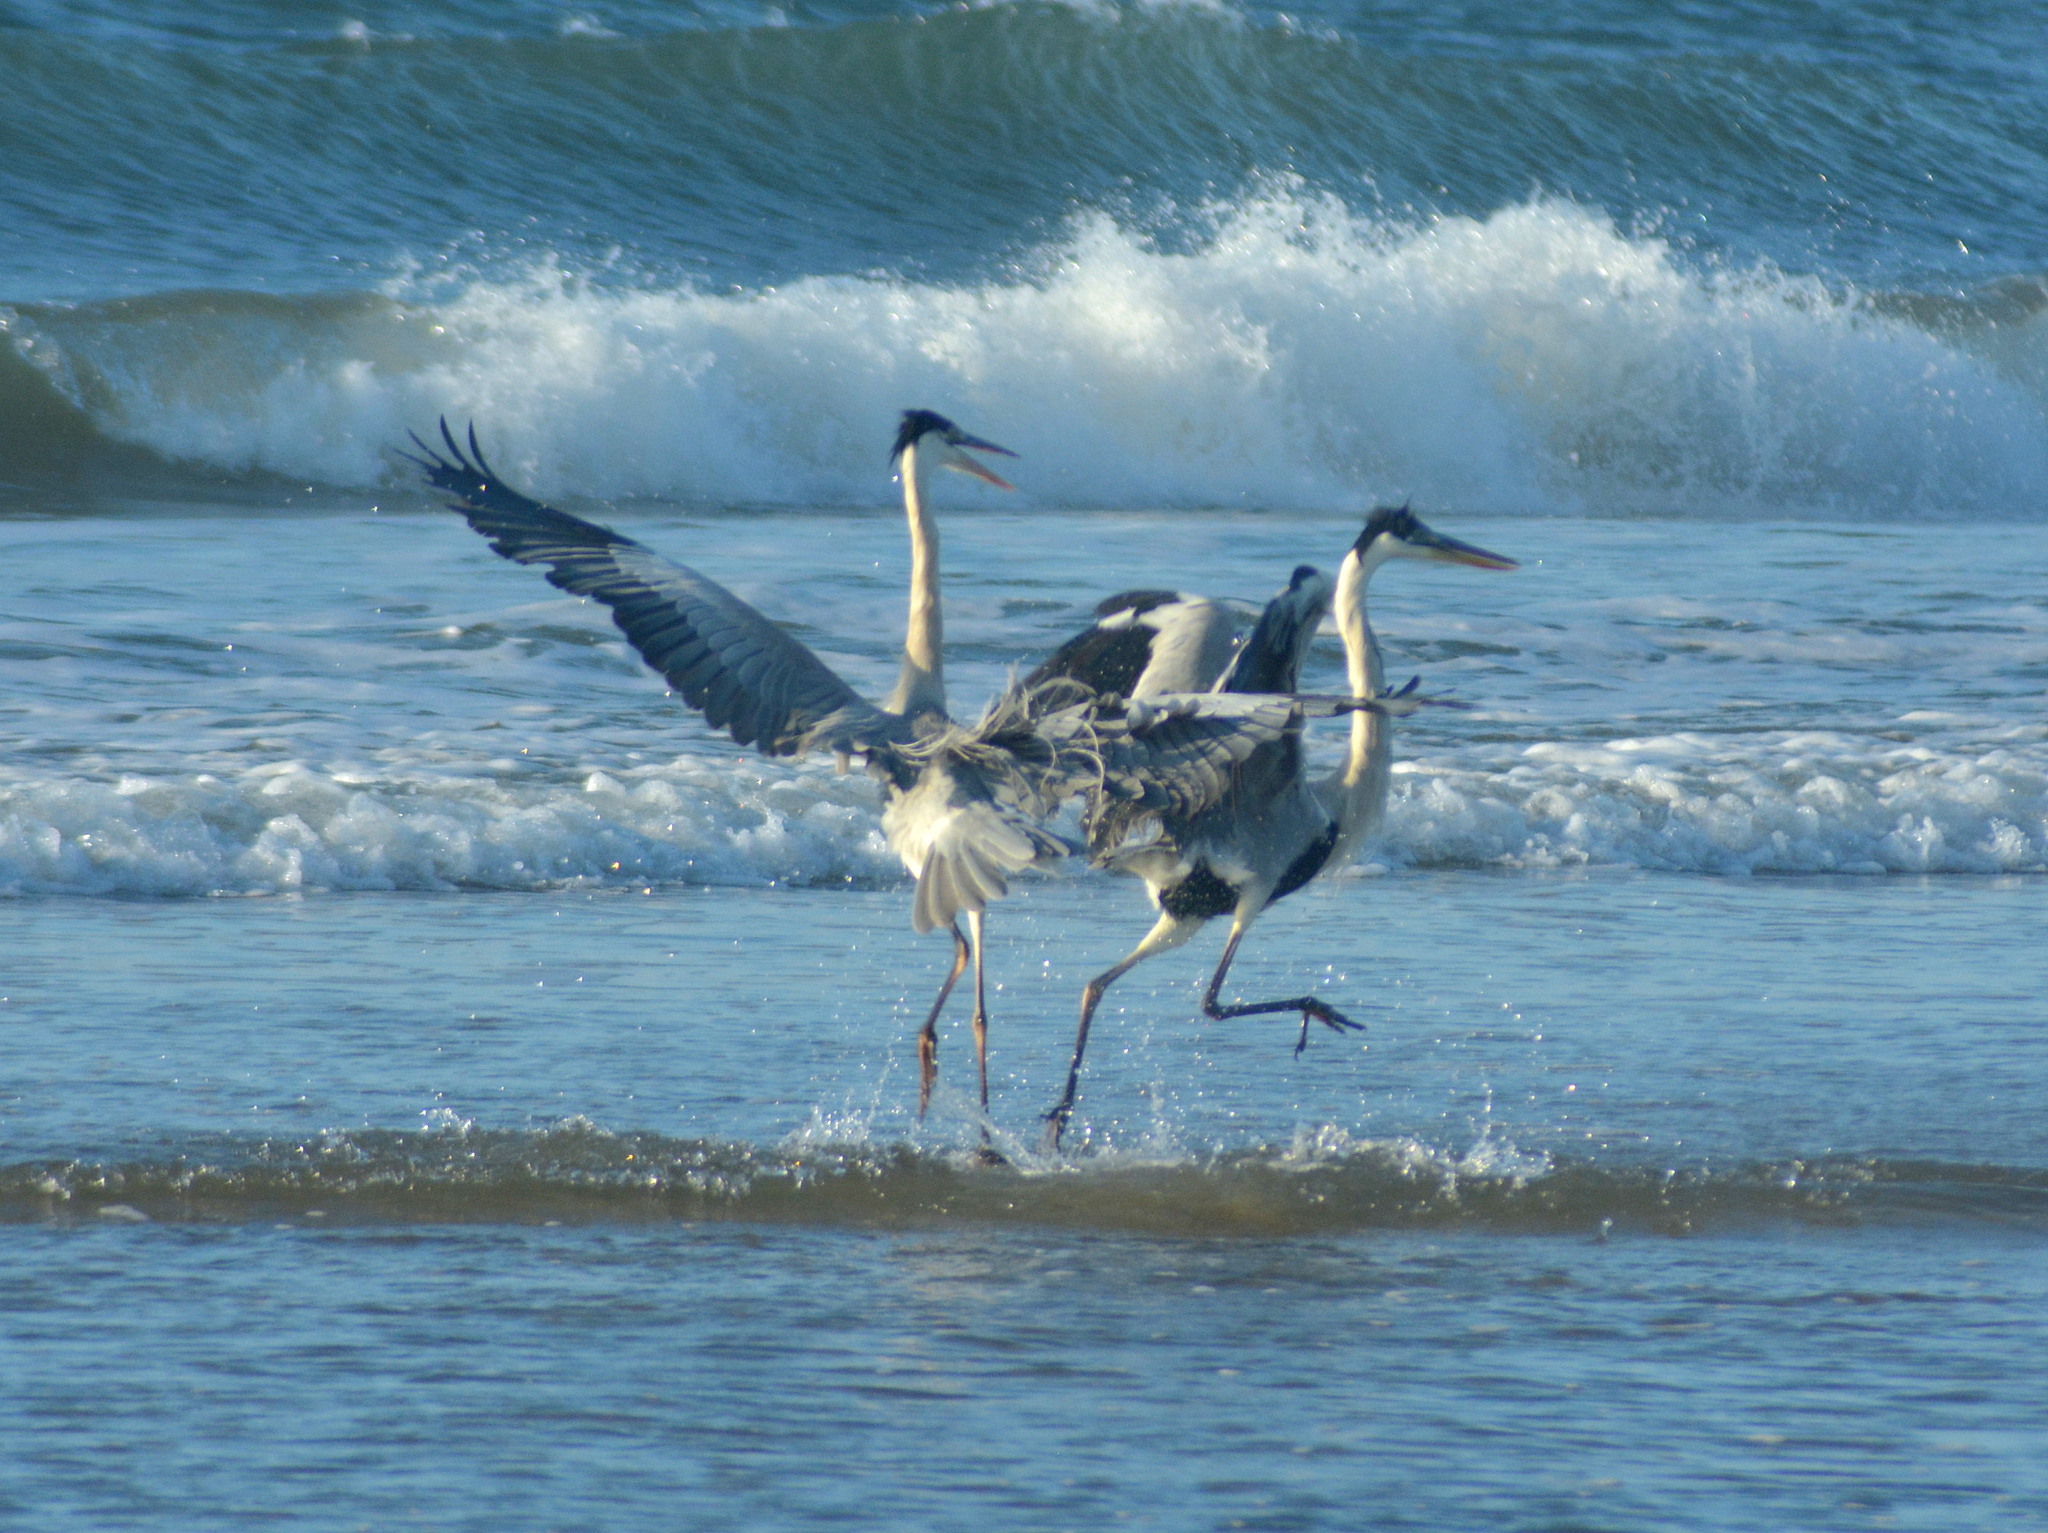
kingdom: Animalia
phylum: Chordata
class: Aves
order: Pelecaniformes
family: Ardeidae
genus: Ardea
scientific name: Ardea cocoi
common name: Cocoi heron
